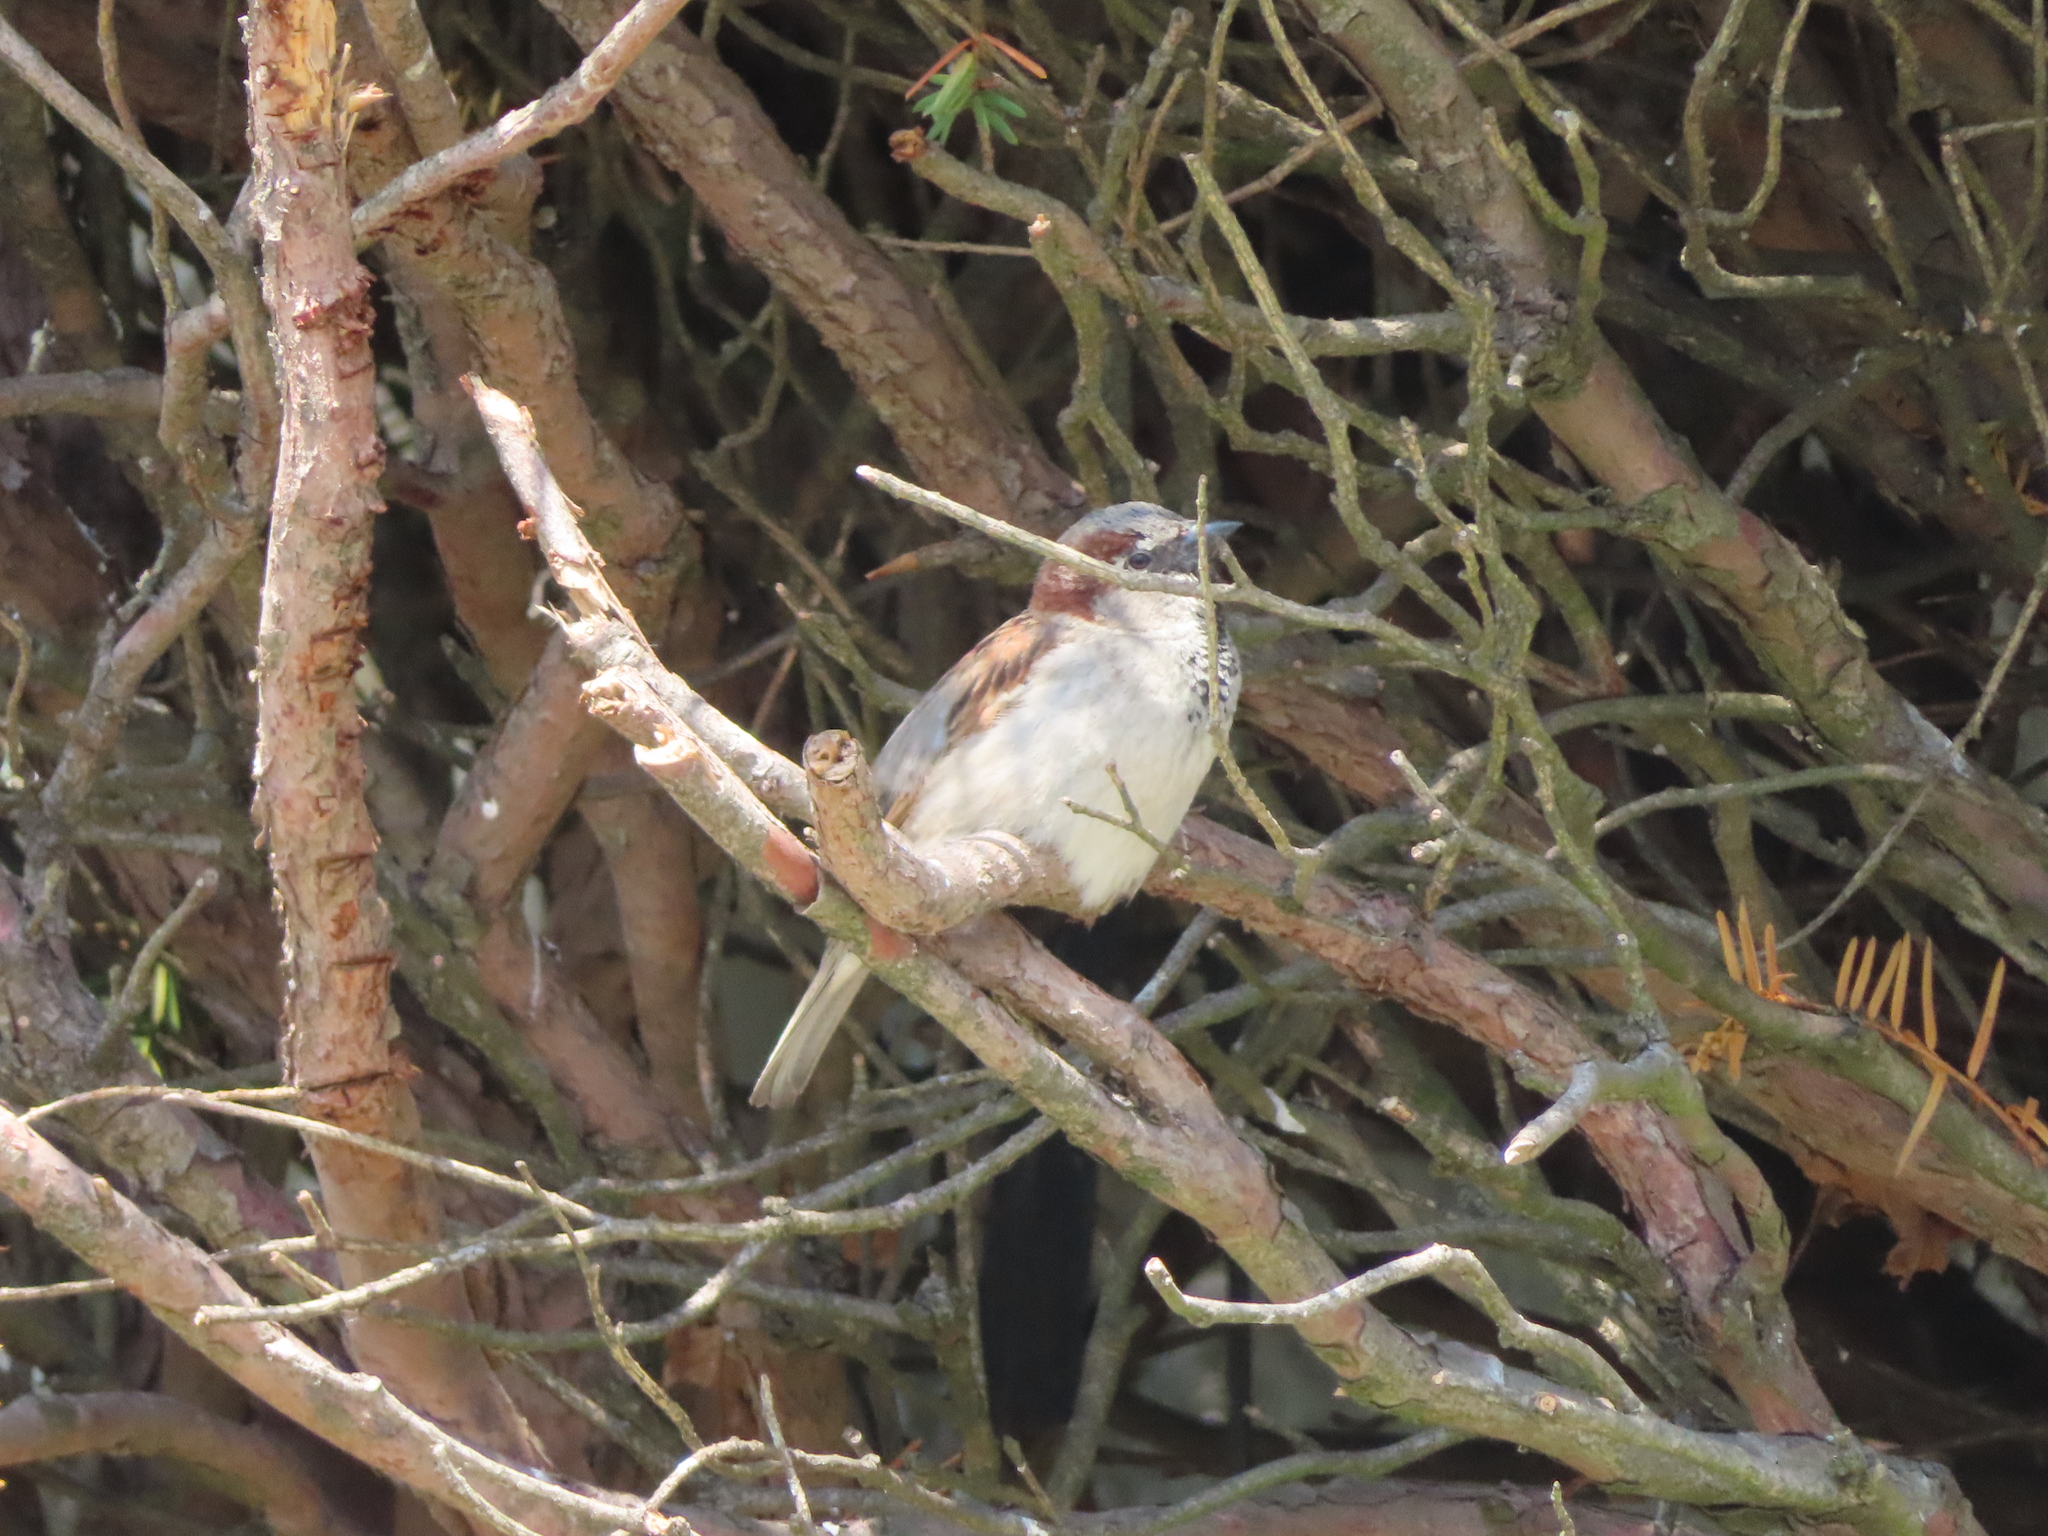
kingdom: Animalia
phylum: Chordata
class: Aves
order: Passeriformes
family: Passeridae
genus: Passer
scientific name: Passer domesticus
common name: House sparrow
